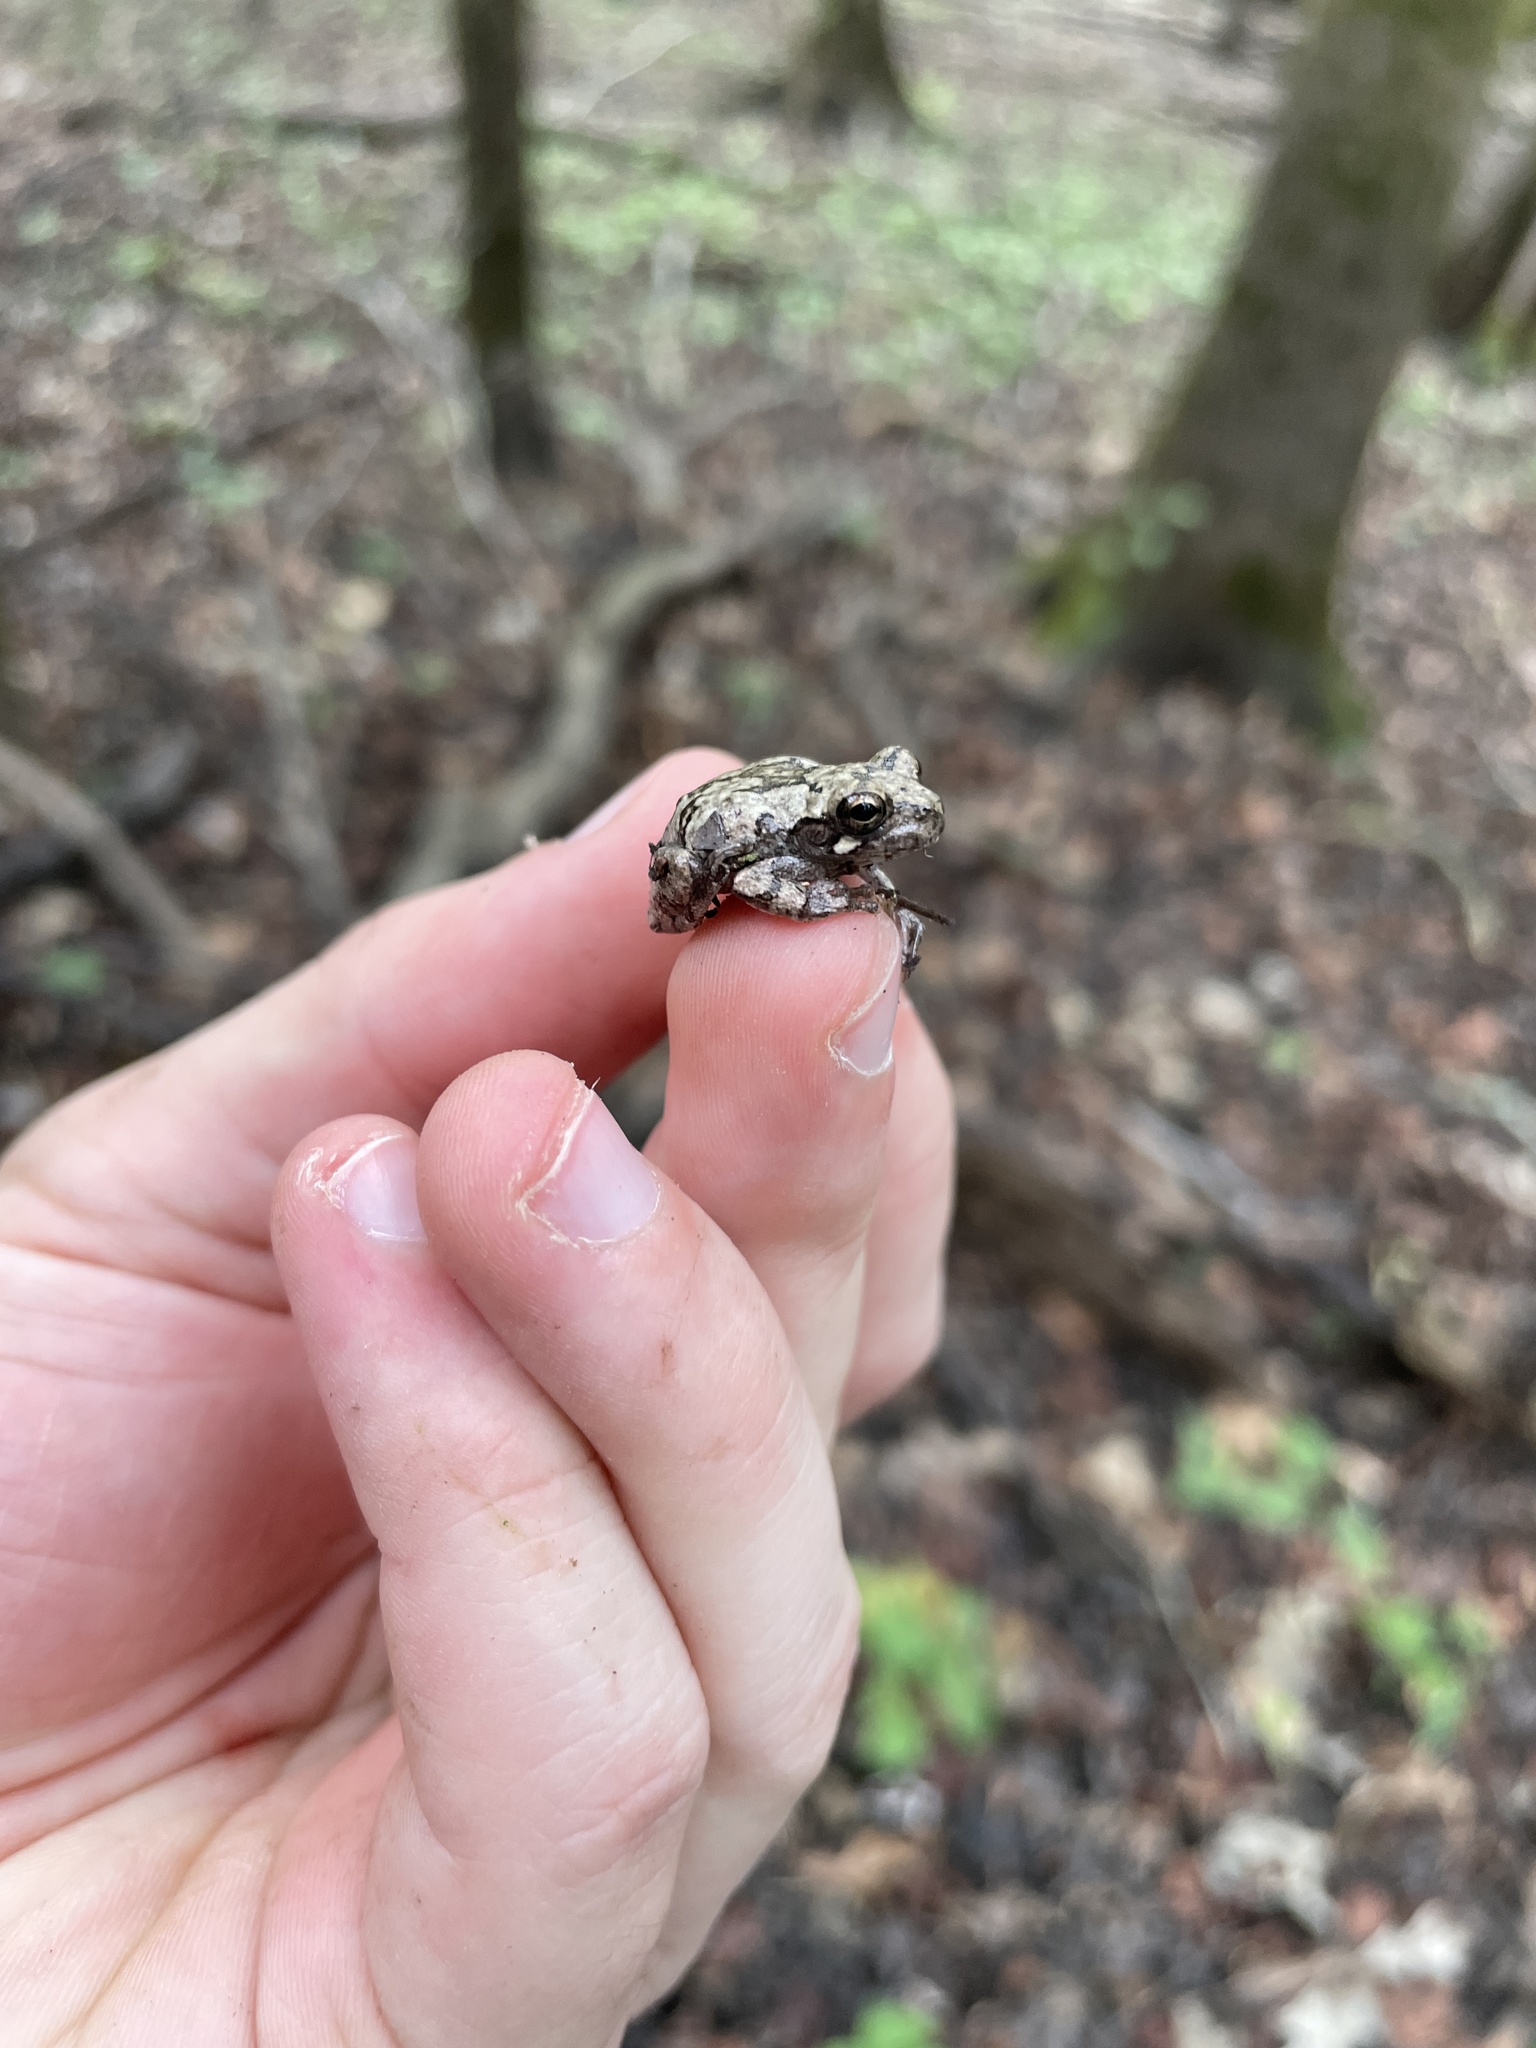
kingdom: Animalia
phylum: Chordata
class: Amphibia
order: Anura
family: Hylidae
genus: Dryophytes
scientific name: Dryophytes chrysoscelis
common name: Cope's gray treefrog
